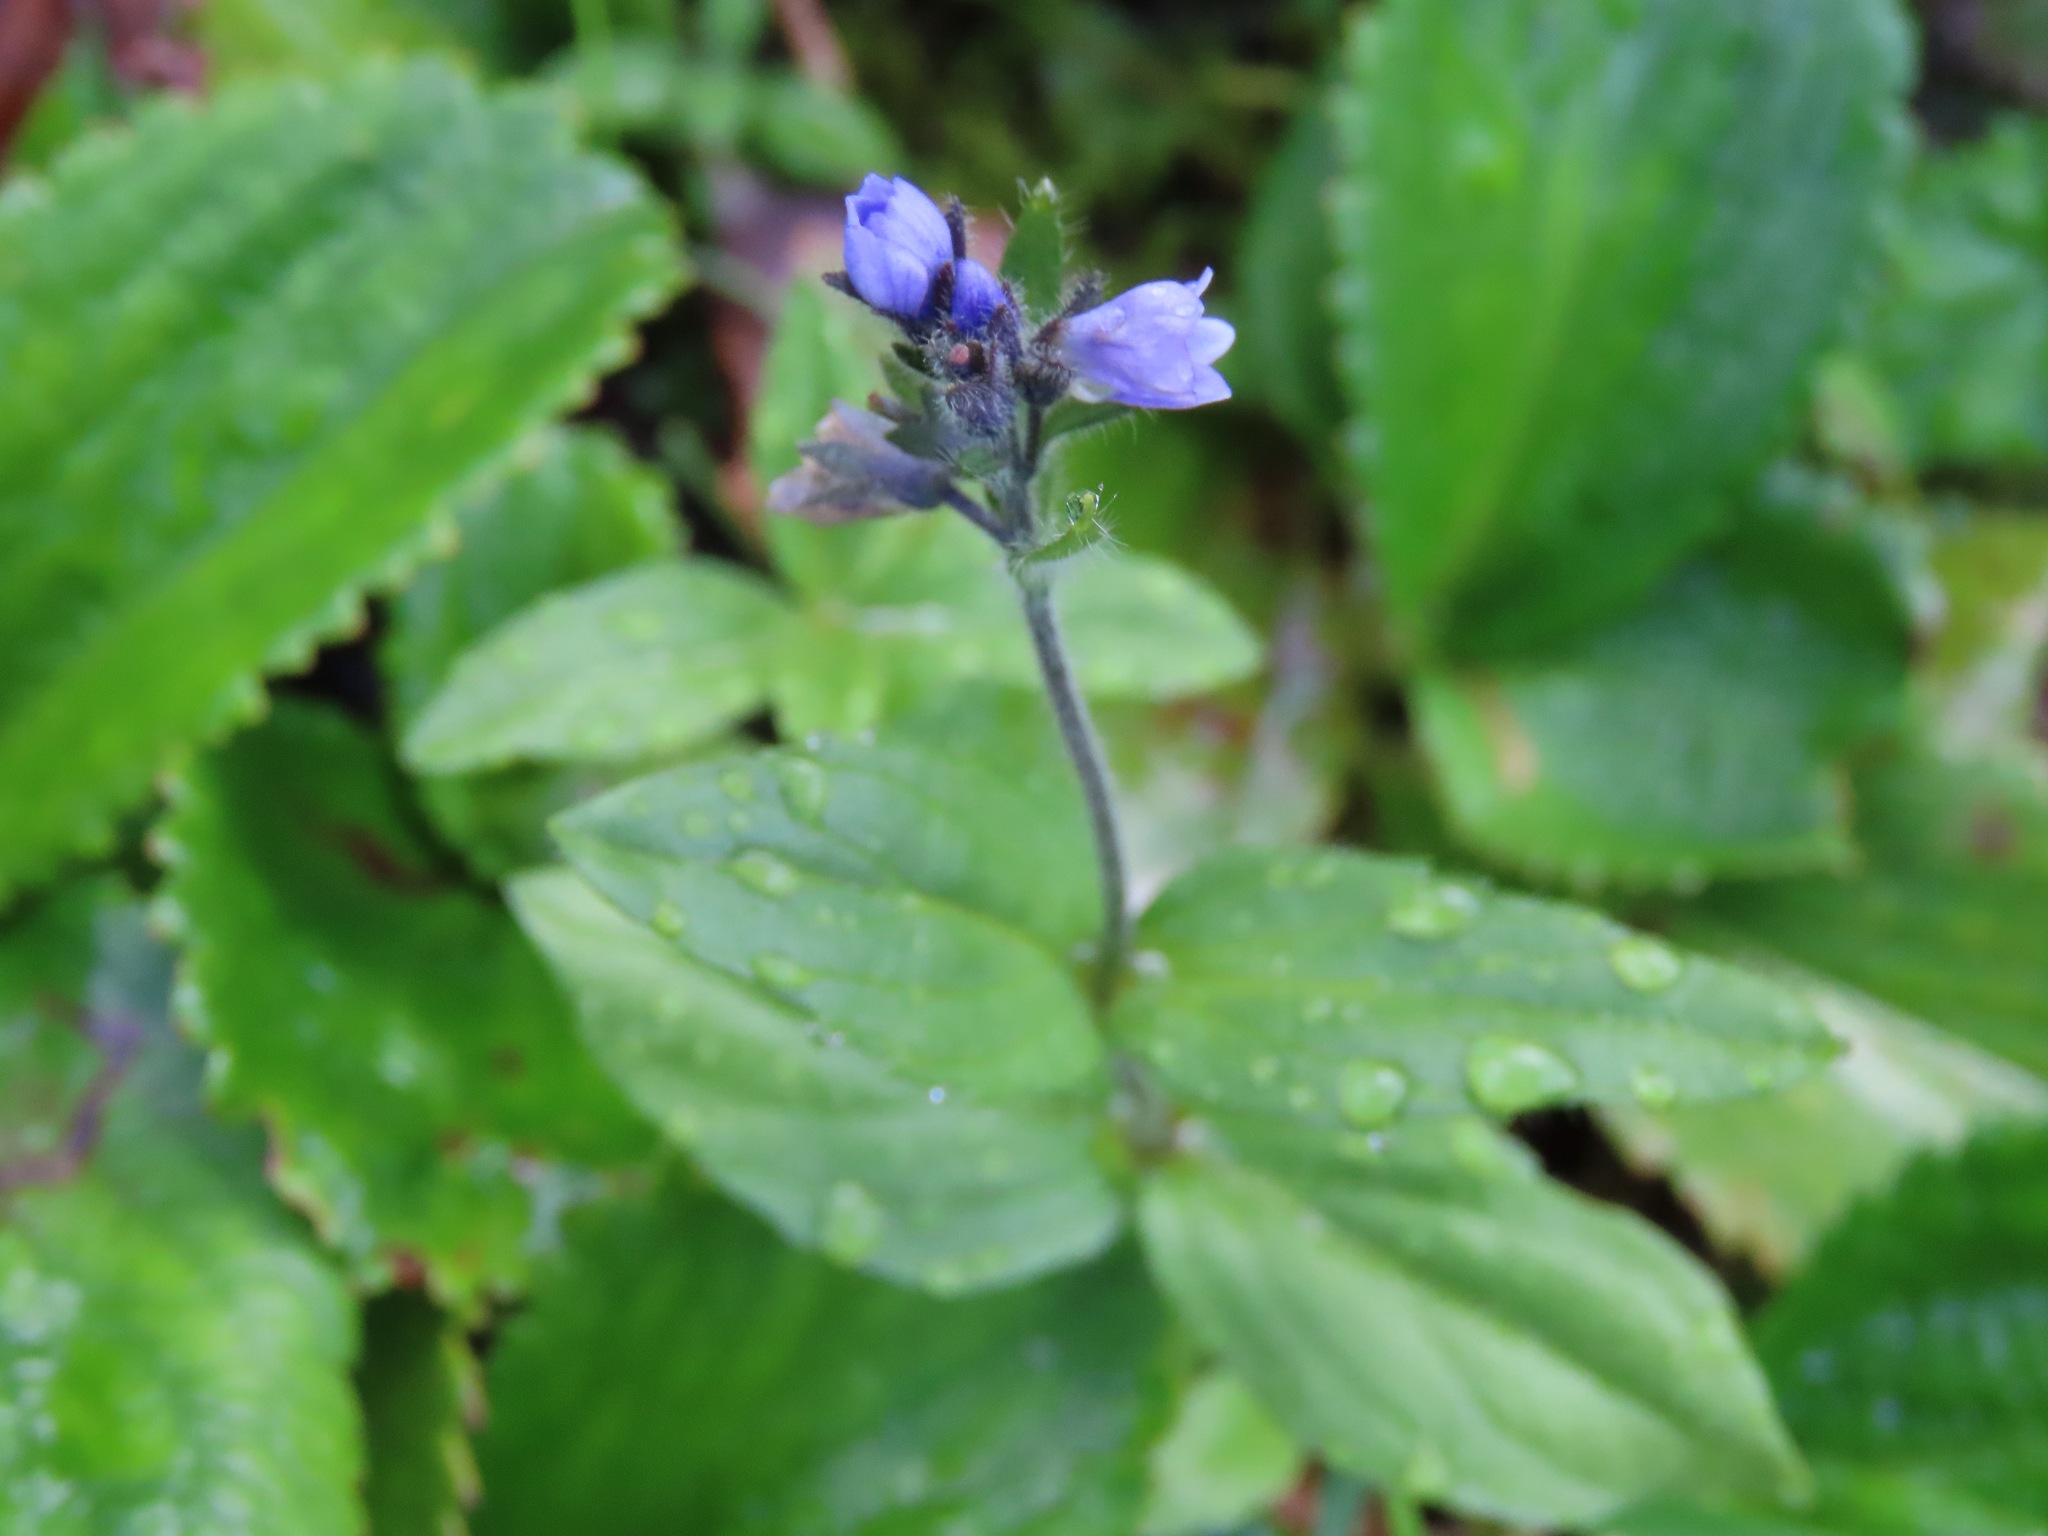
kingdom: Plantae
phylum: Tracheophyta
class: Magnoliopsida
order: Lamiales
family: Plantaginaceae
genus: Veronica
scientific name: Veronica wormskjoldii
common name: American alpine speedwell
